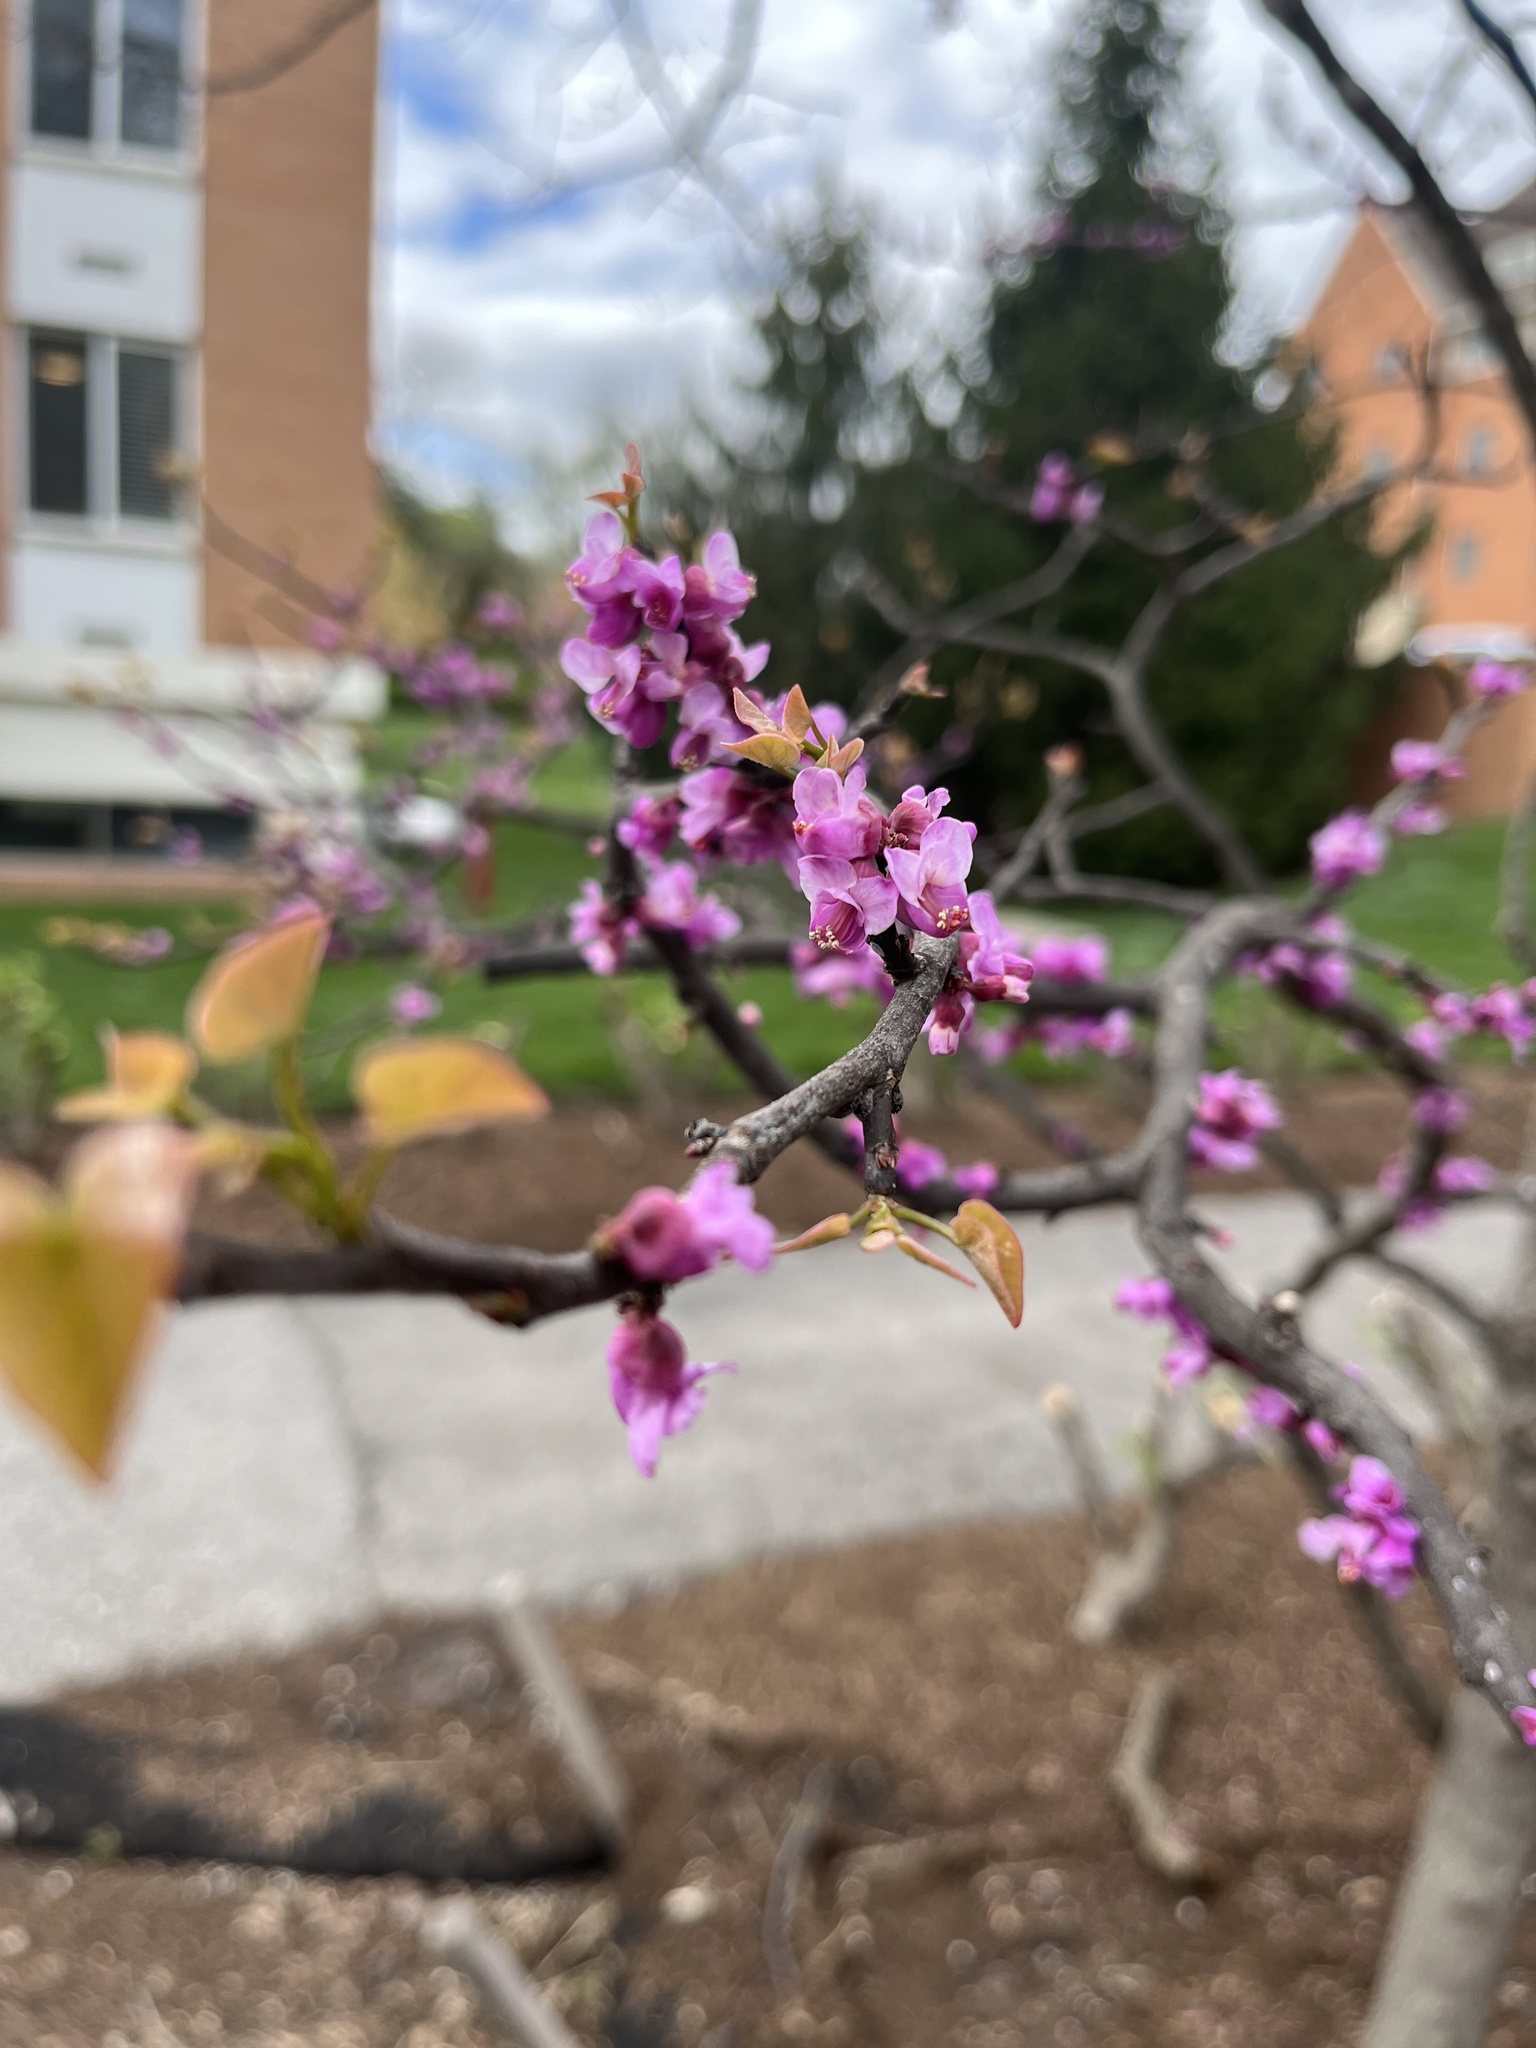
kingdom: Plantae
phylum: Tracheophyta
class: Magnoliopsida
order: Fabales
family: Fabaceae
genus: Cercis
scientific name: Cercis canadensis
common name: Eastern redbud
